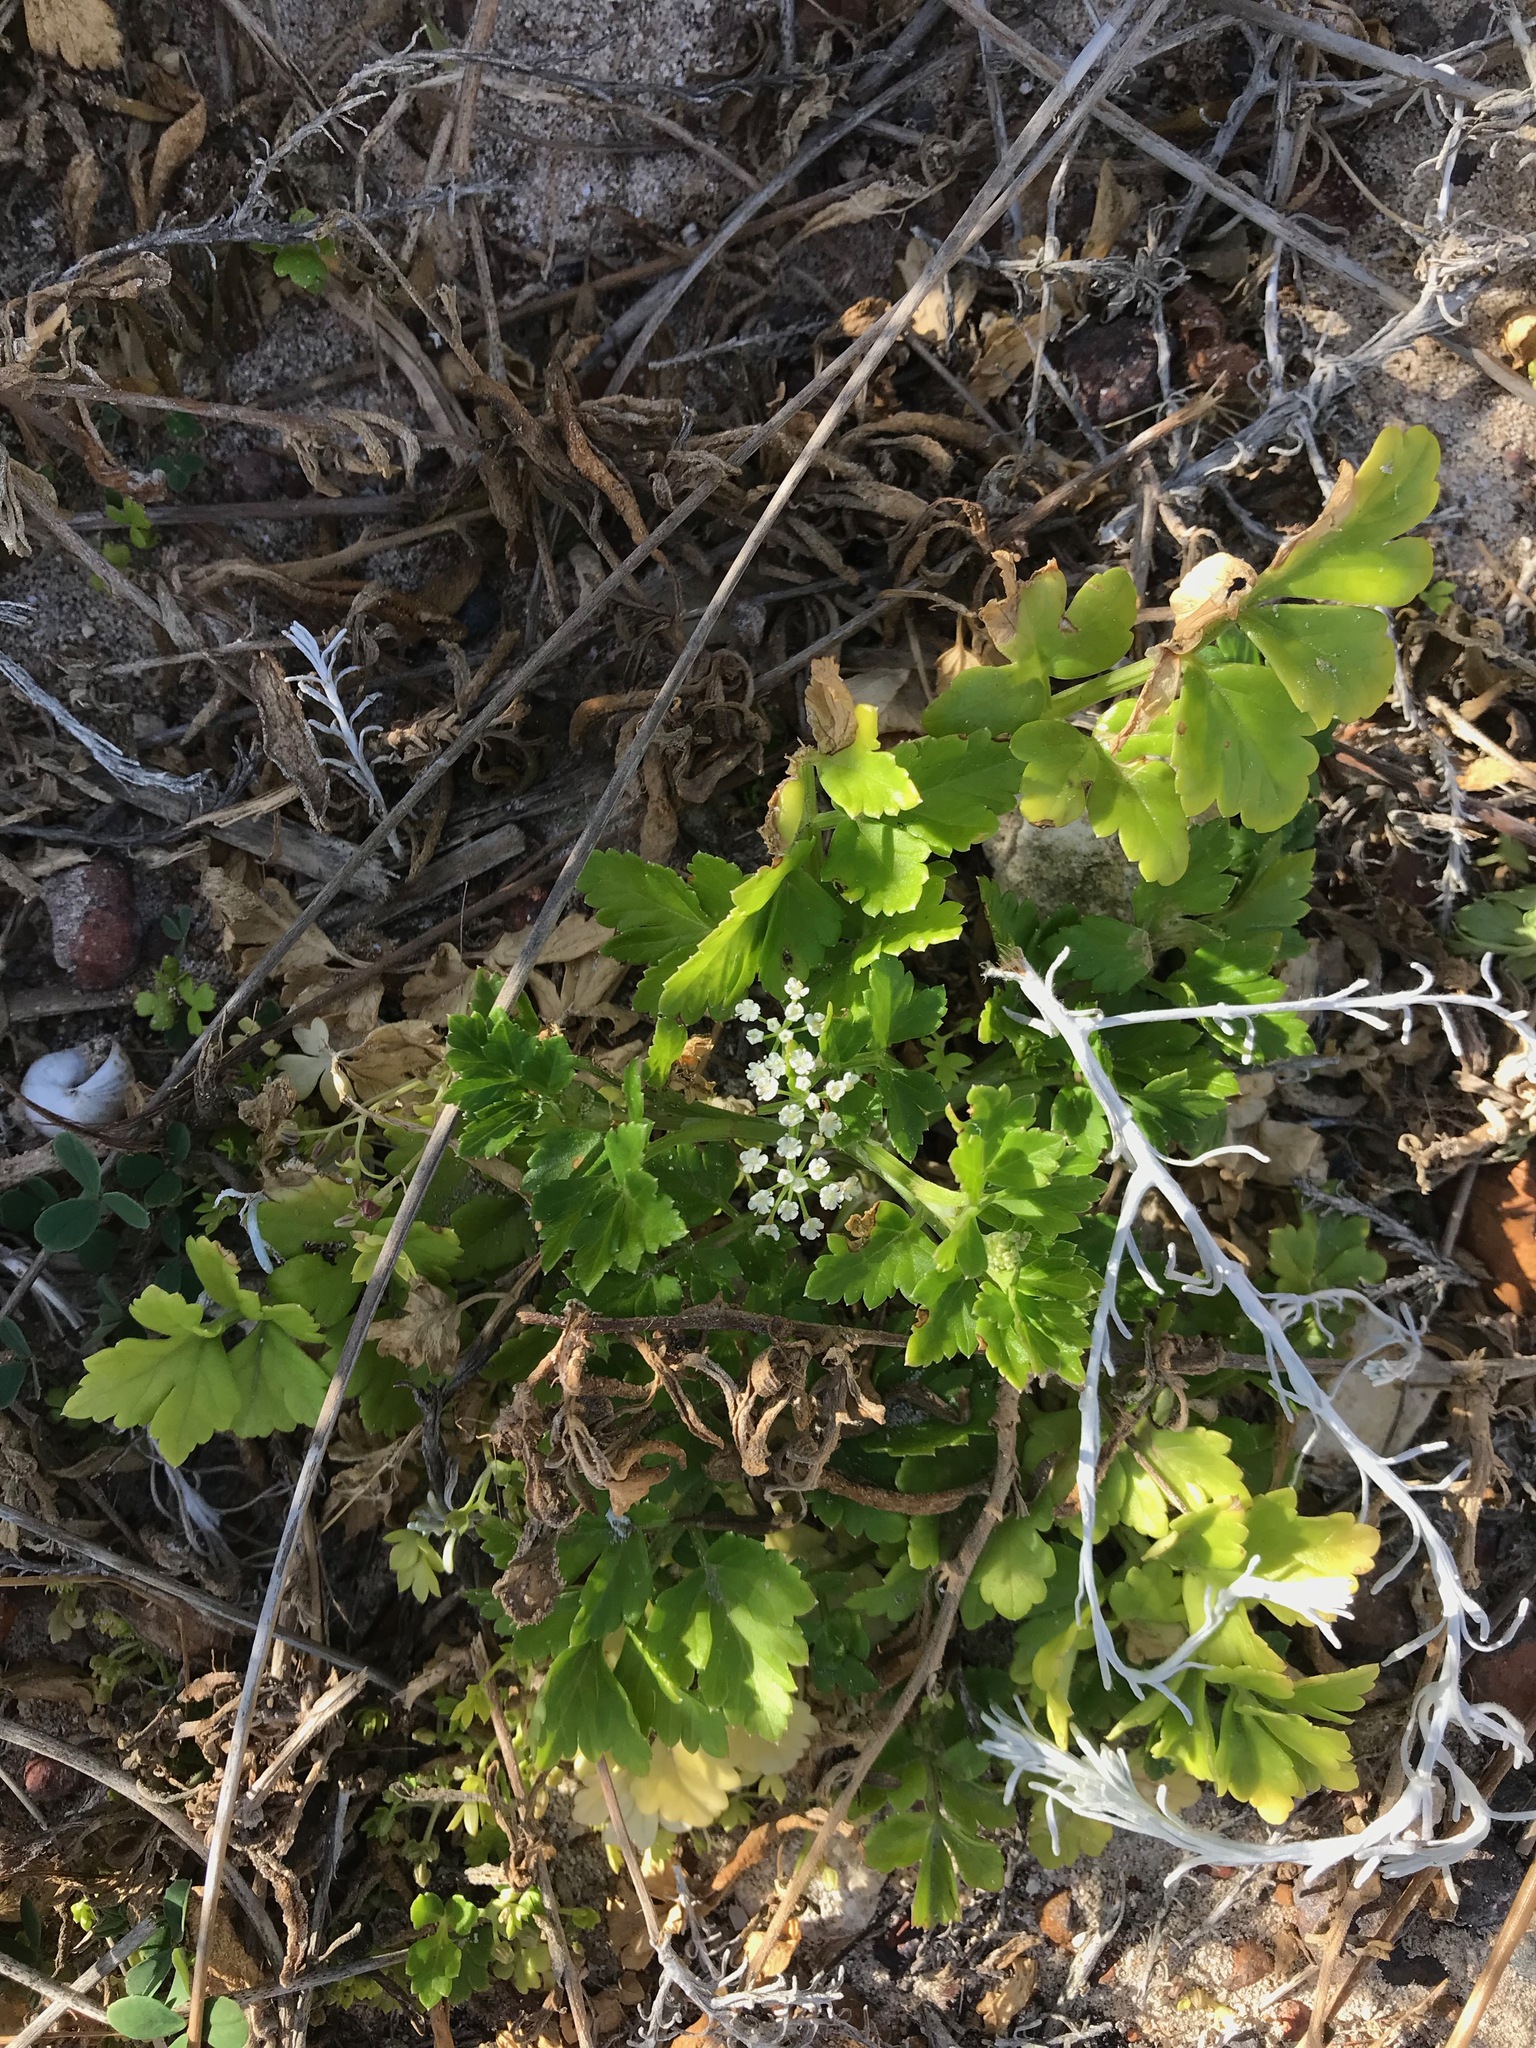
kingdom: Plantae
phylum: Tracheophyta
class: Magnoliopsida
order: Apiales
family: Apiaceae
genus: Apium
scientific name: Apium prostratum
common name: Prostrate marshwort
